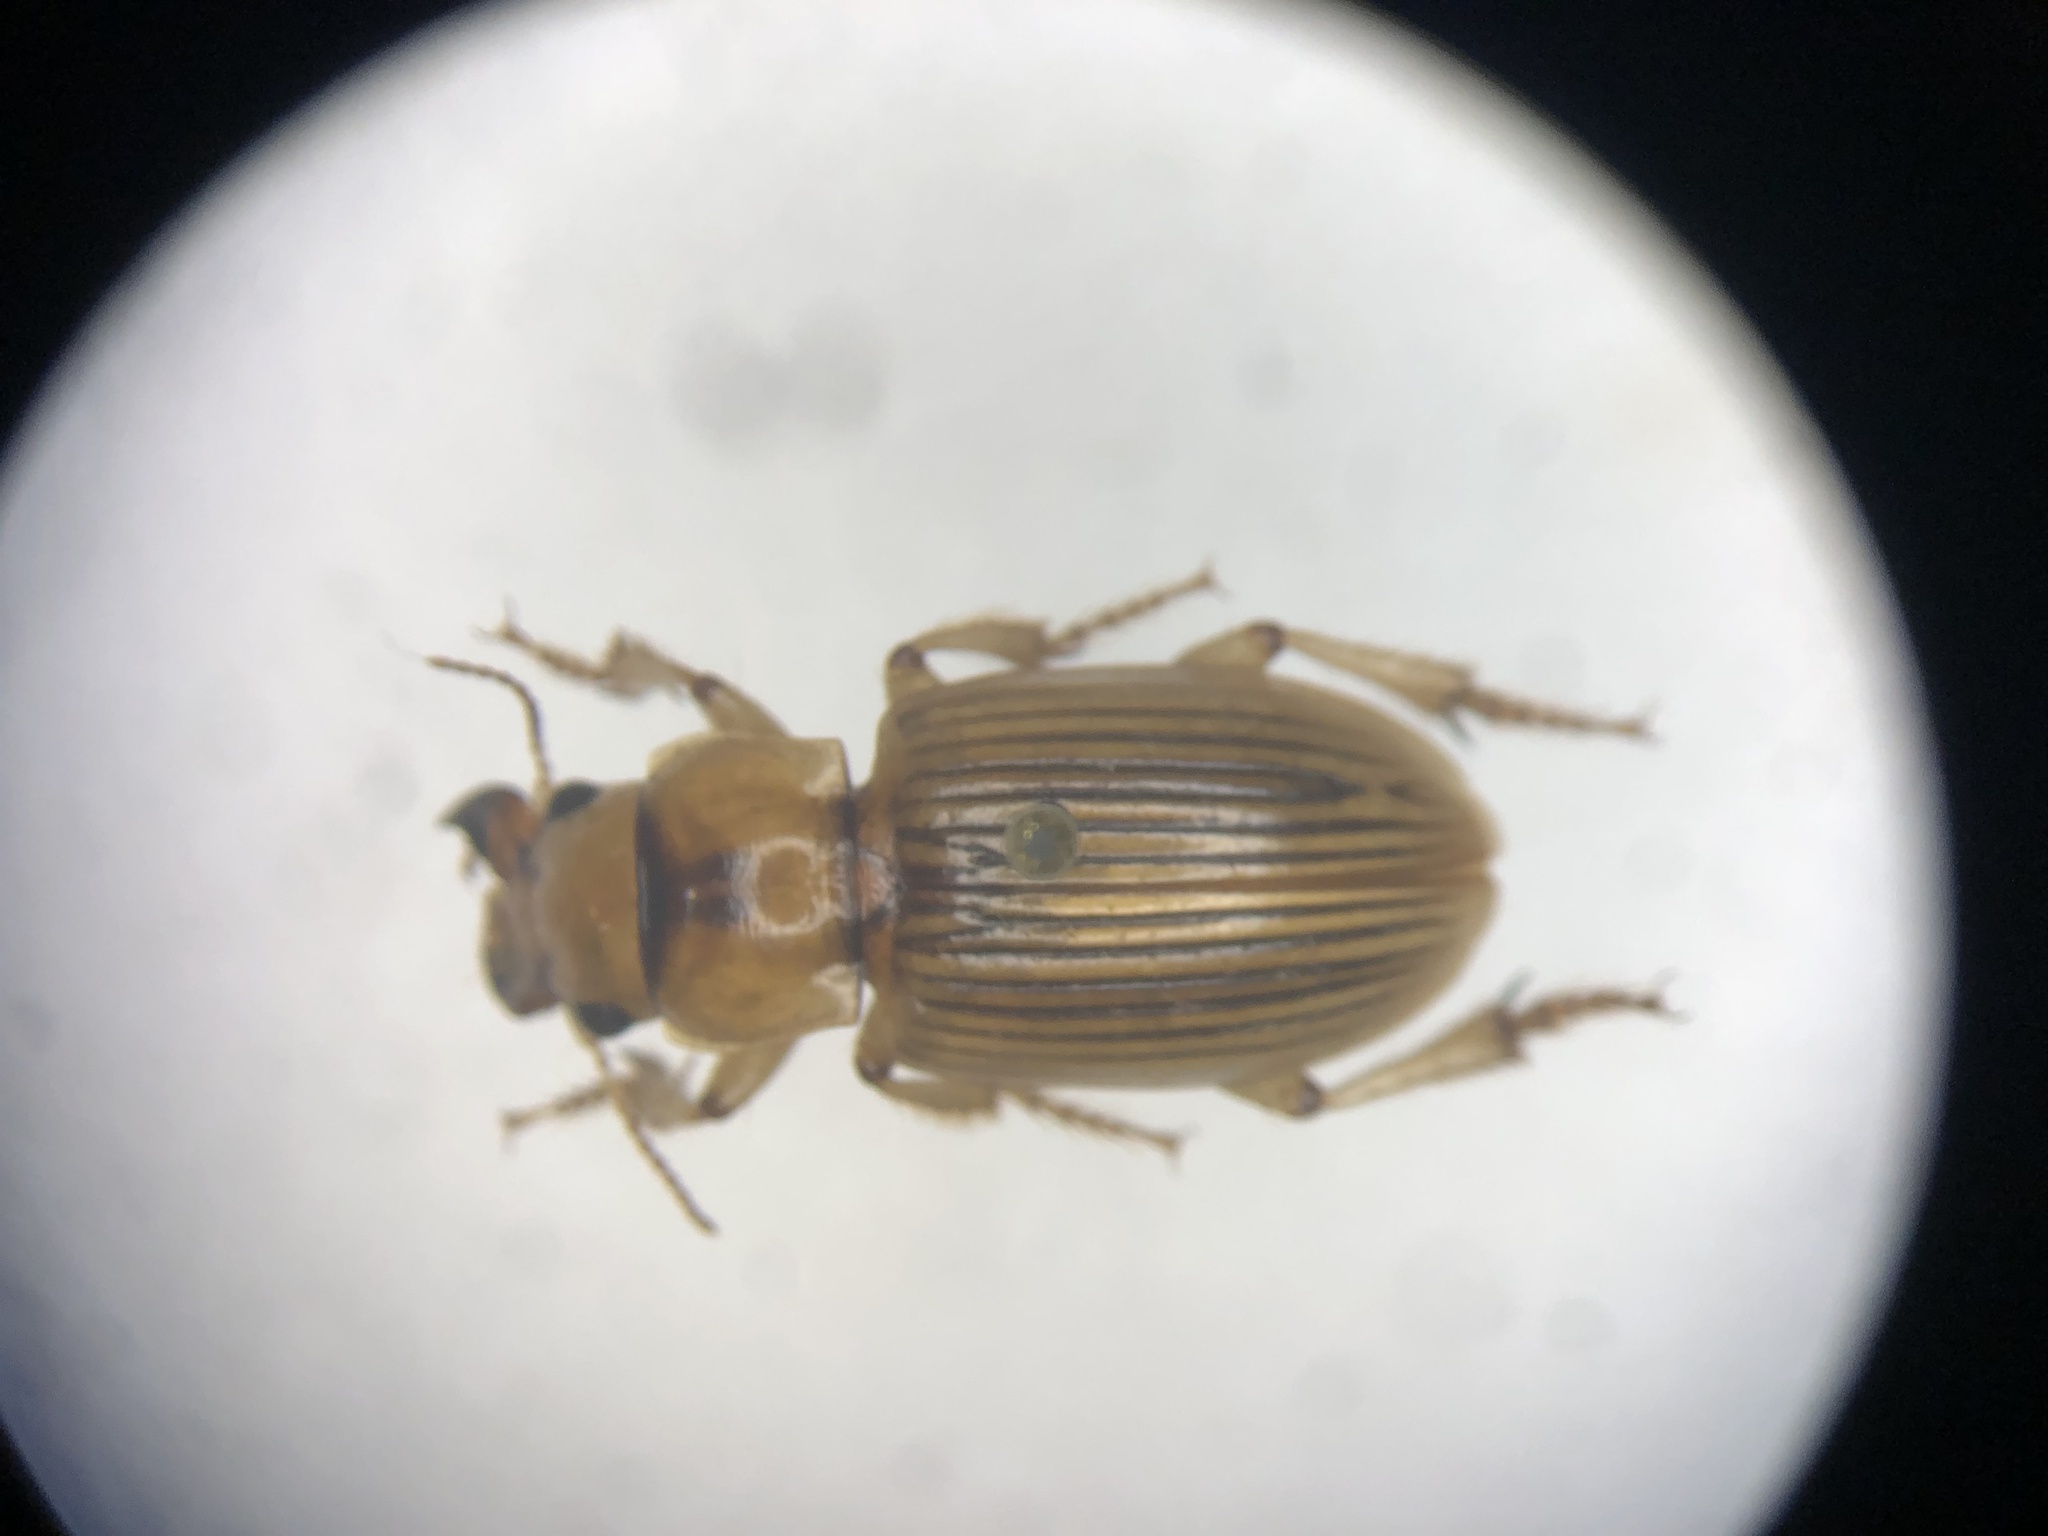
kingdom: Animalia
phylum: Arthropoda
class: Insecta
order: Coleoptera
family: Carabidae
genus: Geopinus
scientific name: Geopinus incrassatus
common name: Homely geopinus
